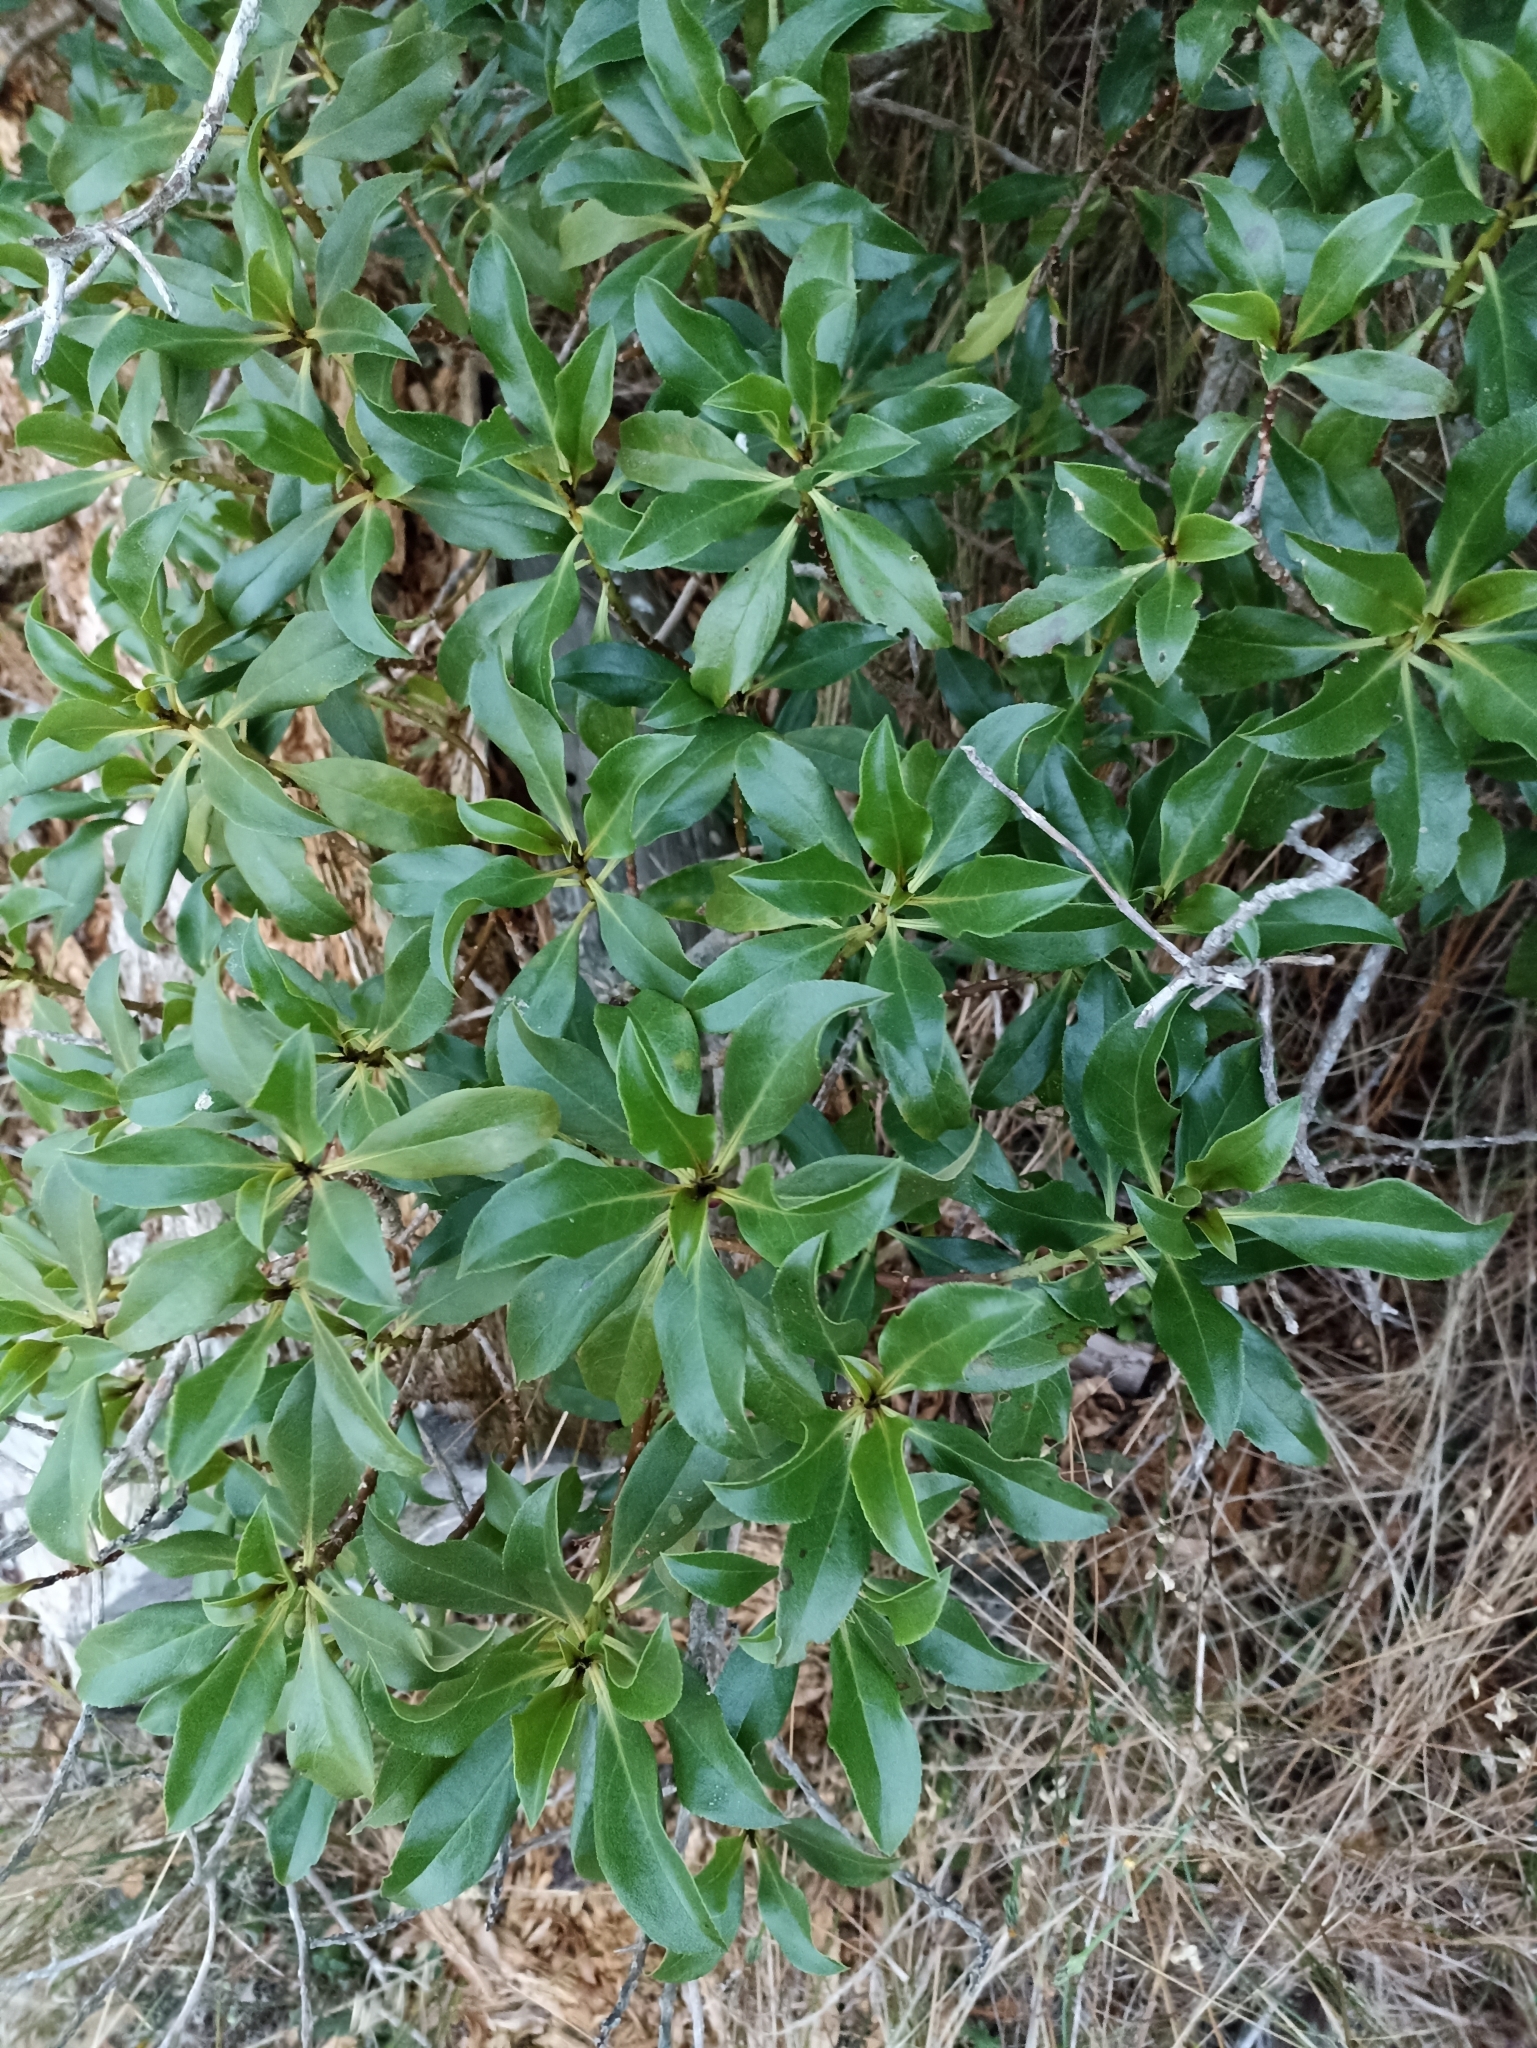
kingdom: Plantae
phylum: Tracheophyta
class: Magnoliopsida
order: Lamiales
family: Scrophulariaceae
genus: Myoporum
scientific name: Myoporum laetum
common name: Ngaio tree
